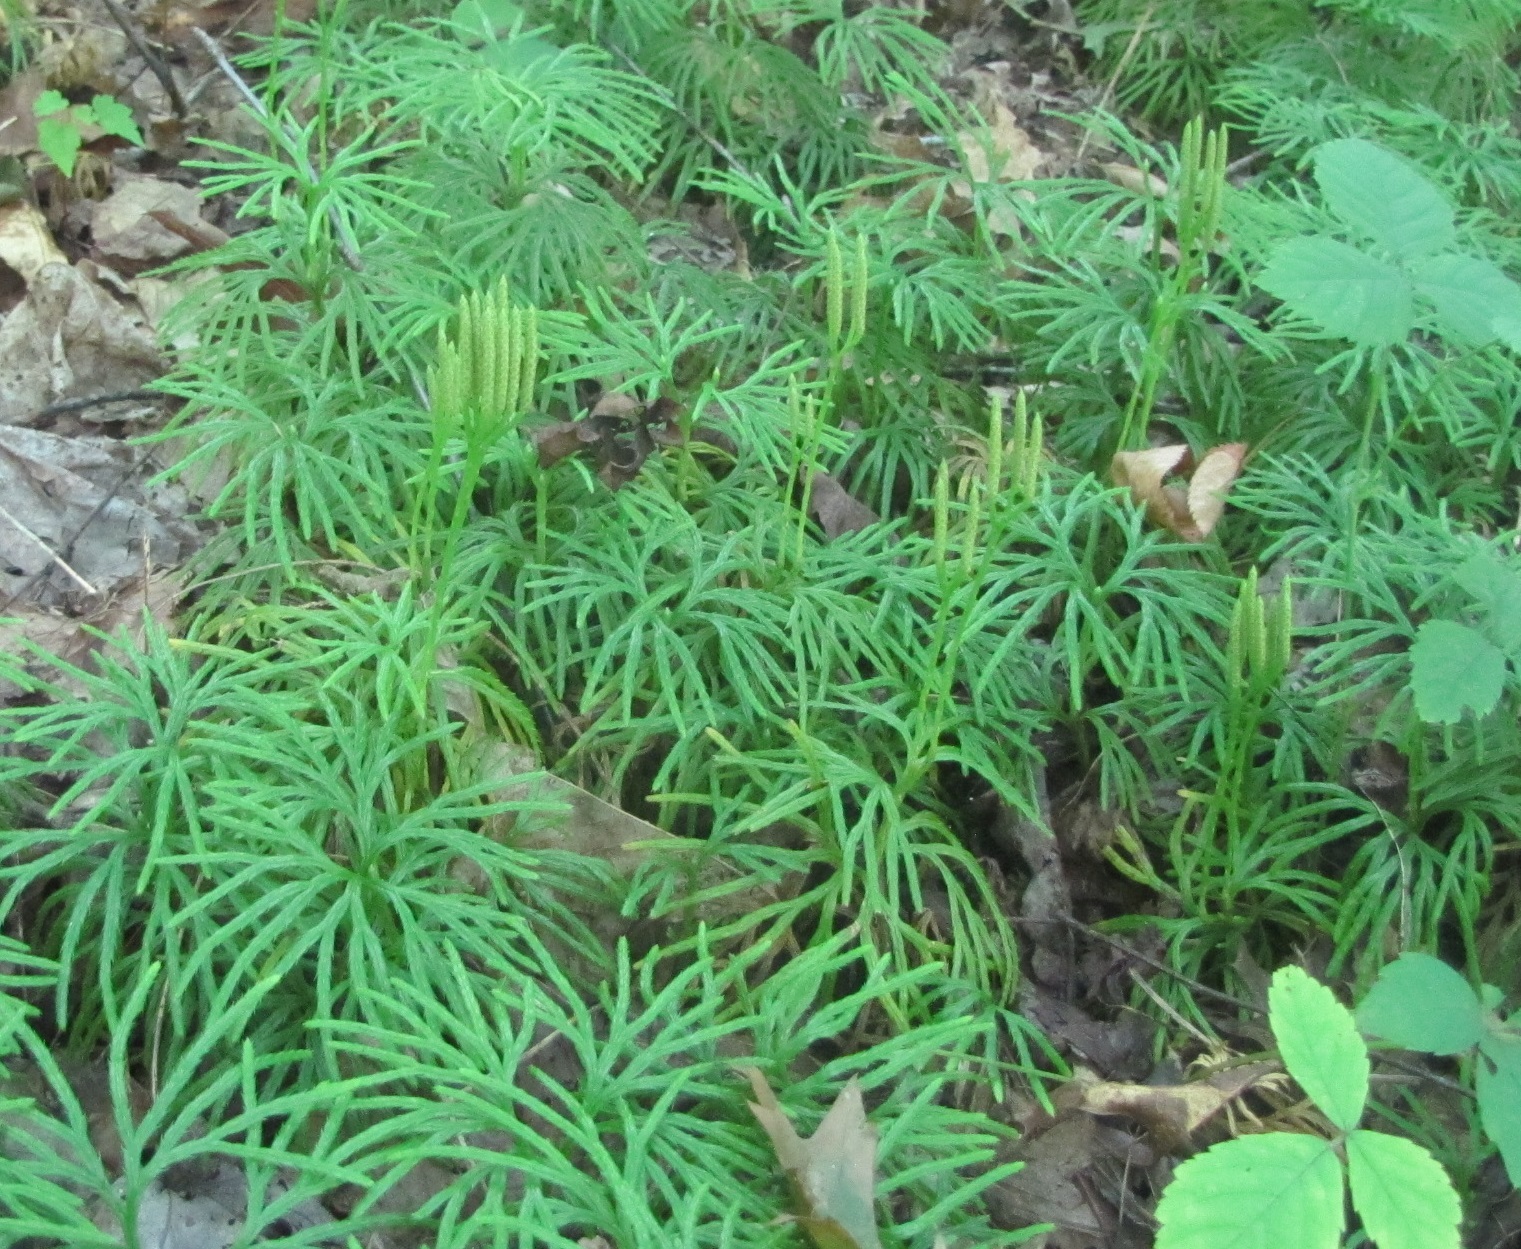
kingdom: Plantae
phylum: Tracheophyta
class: Lycopodiopsida
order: Lycopodiales
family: Lycopodiaceae
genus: Diphasiastrum
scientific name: Diphasiastrum digitatum
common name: Southern running-pine
